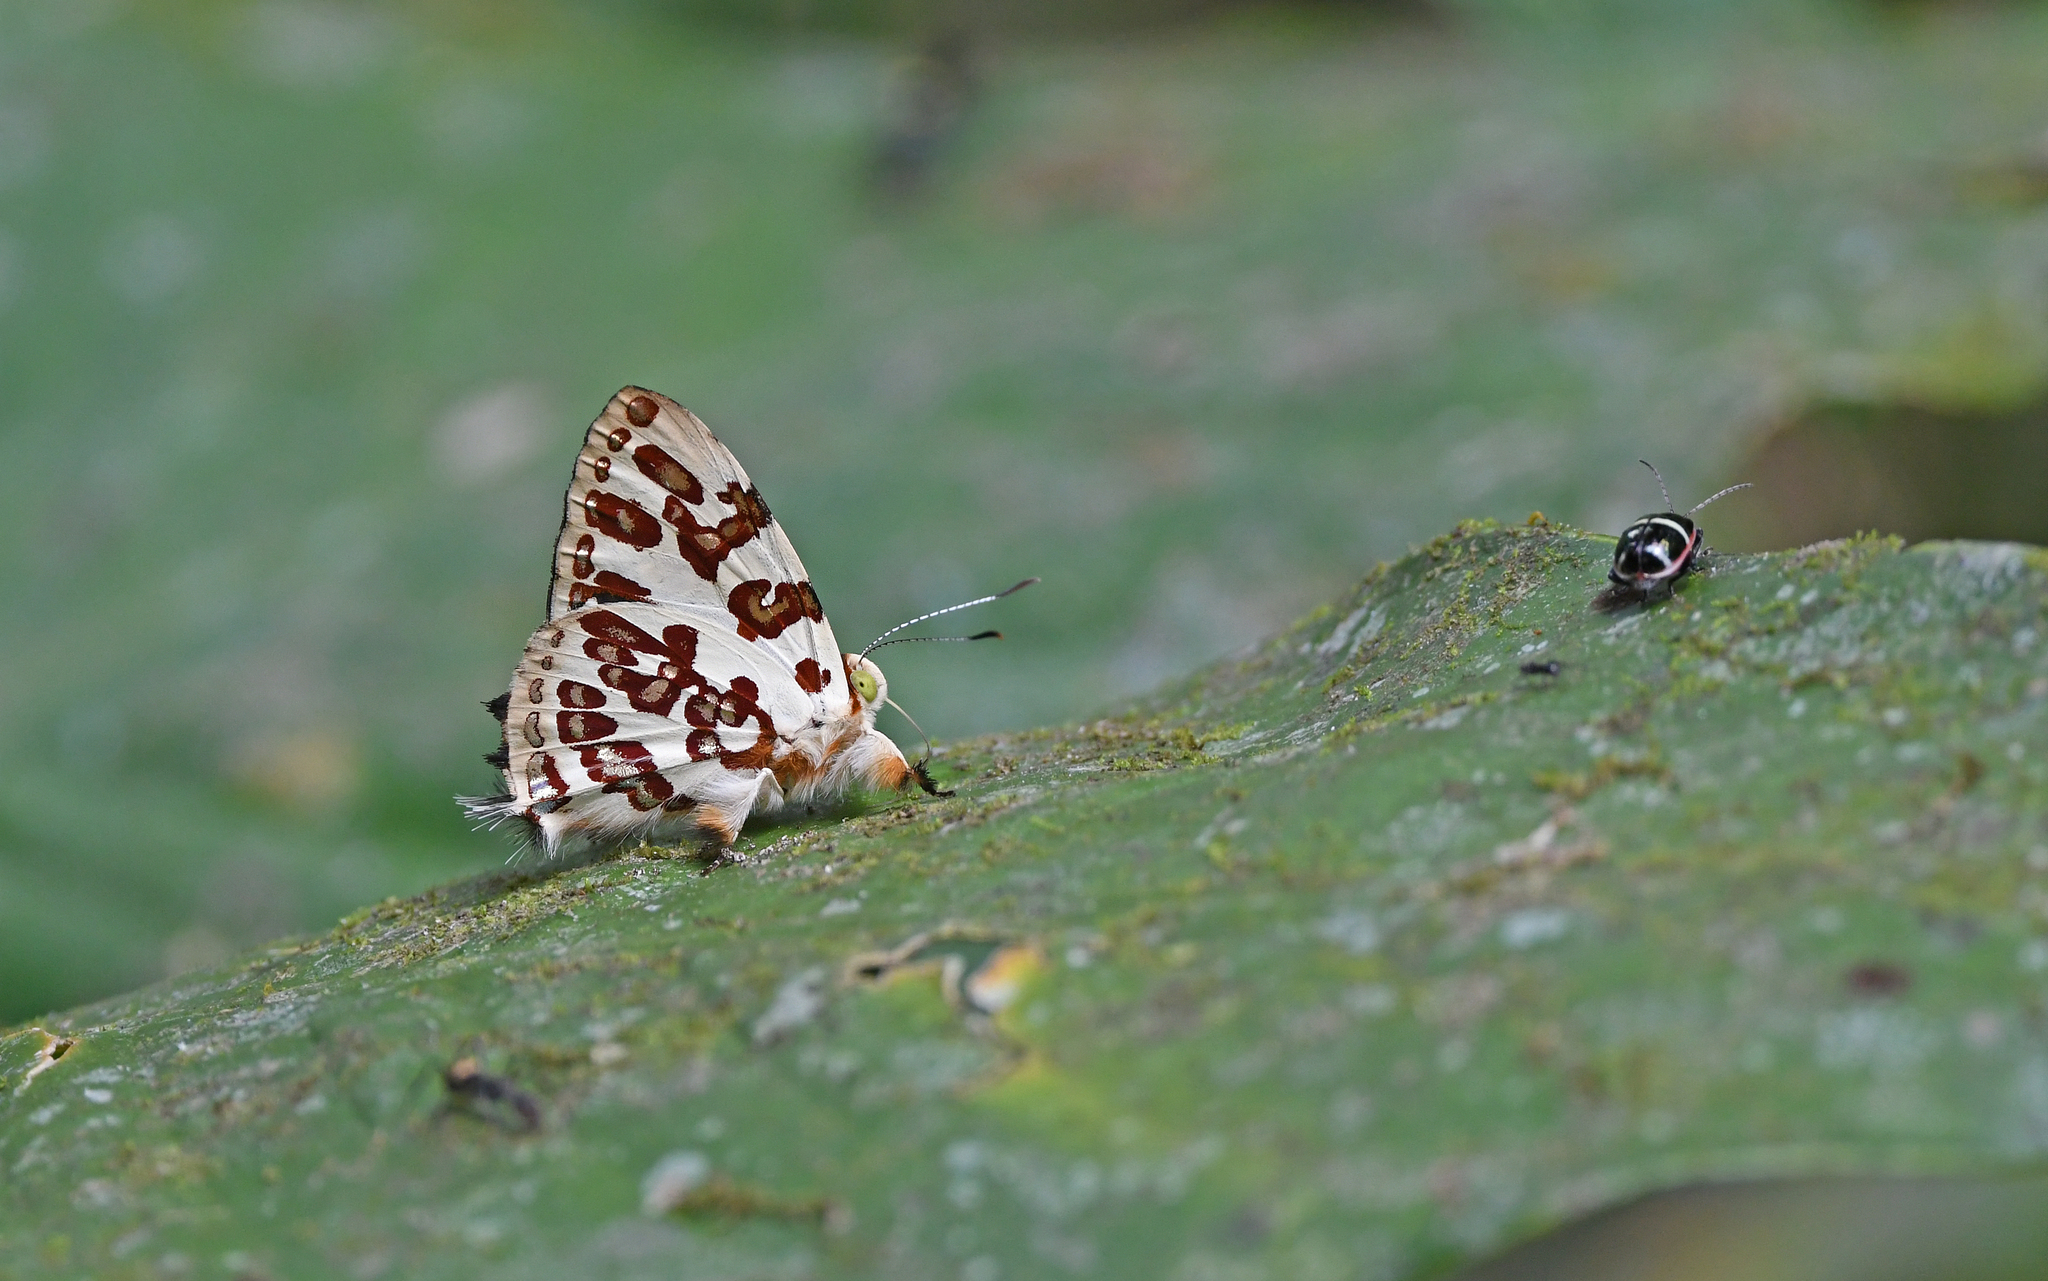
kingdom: Animalia
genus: Anteros
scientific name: Anteros acheus
